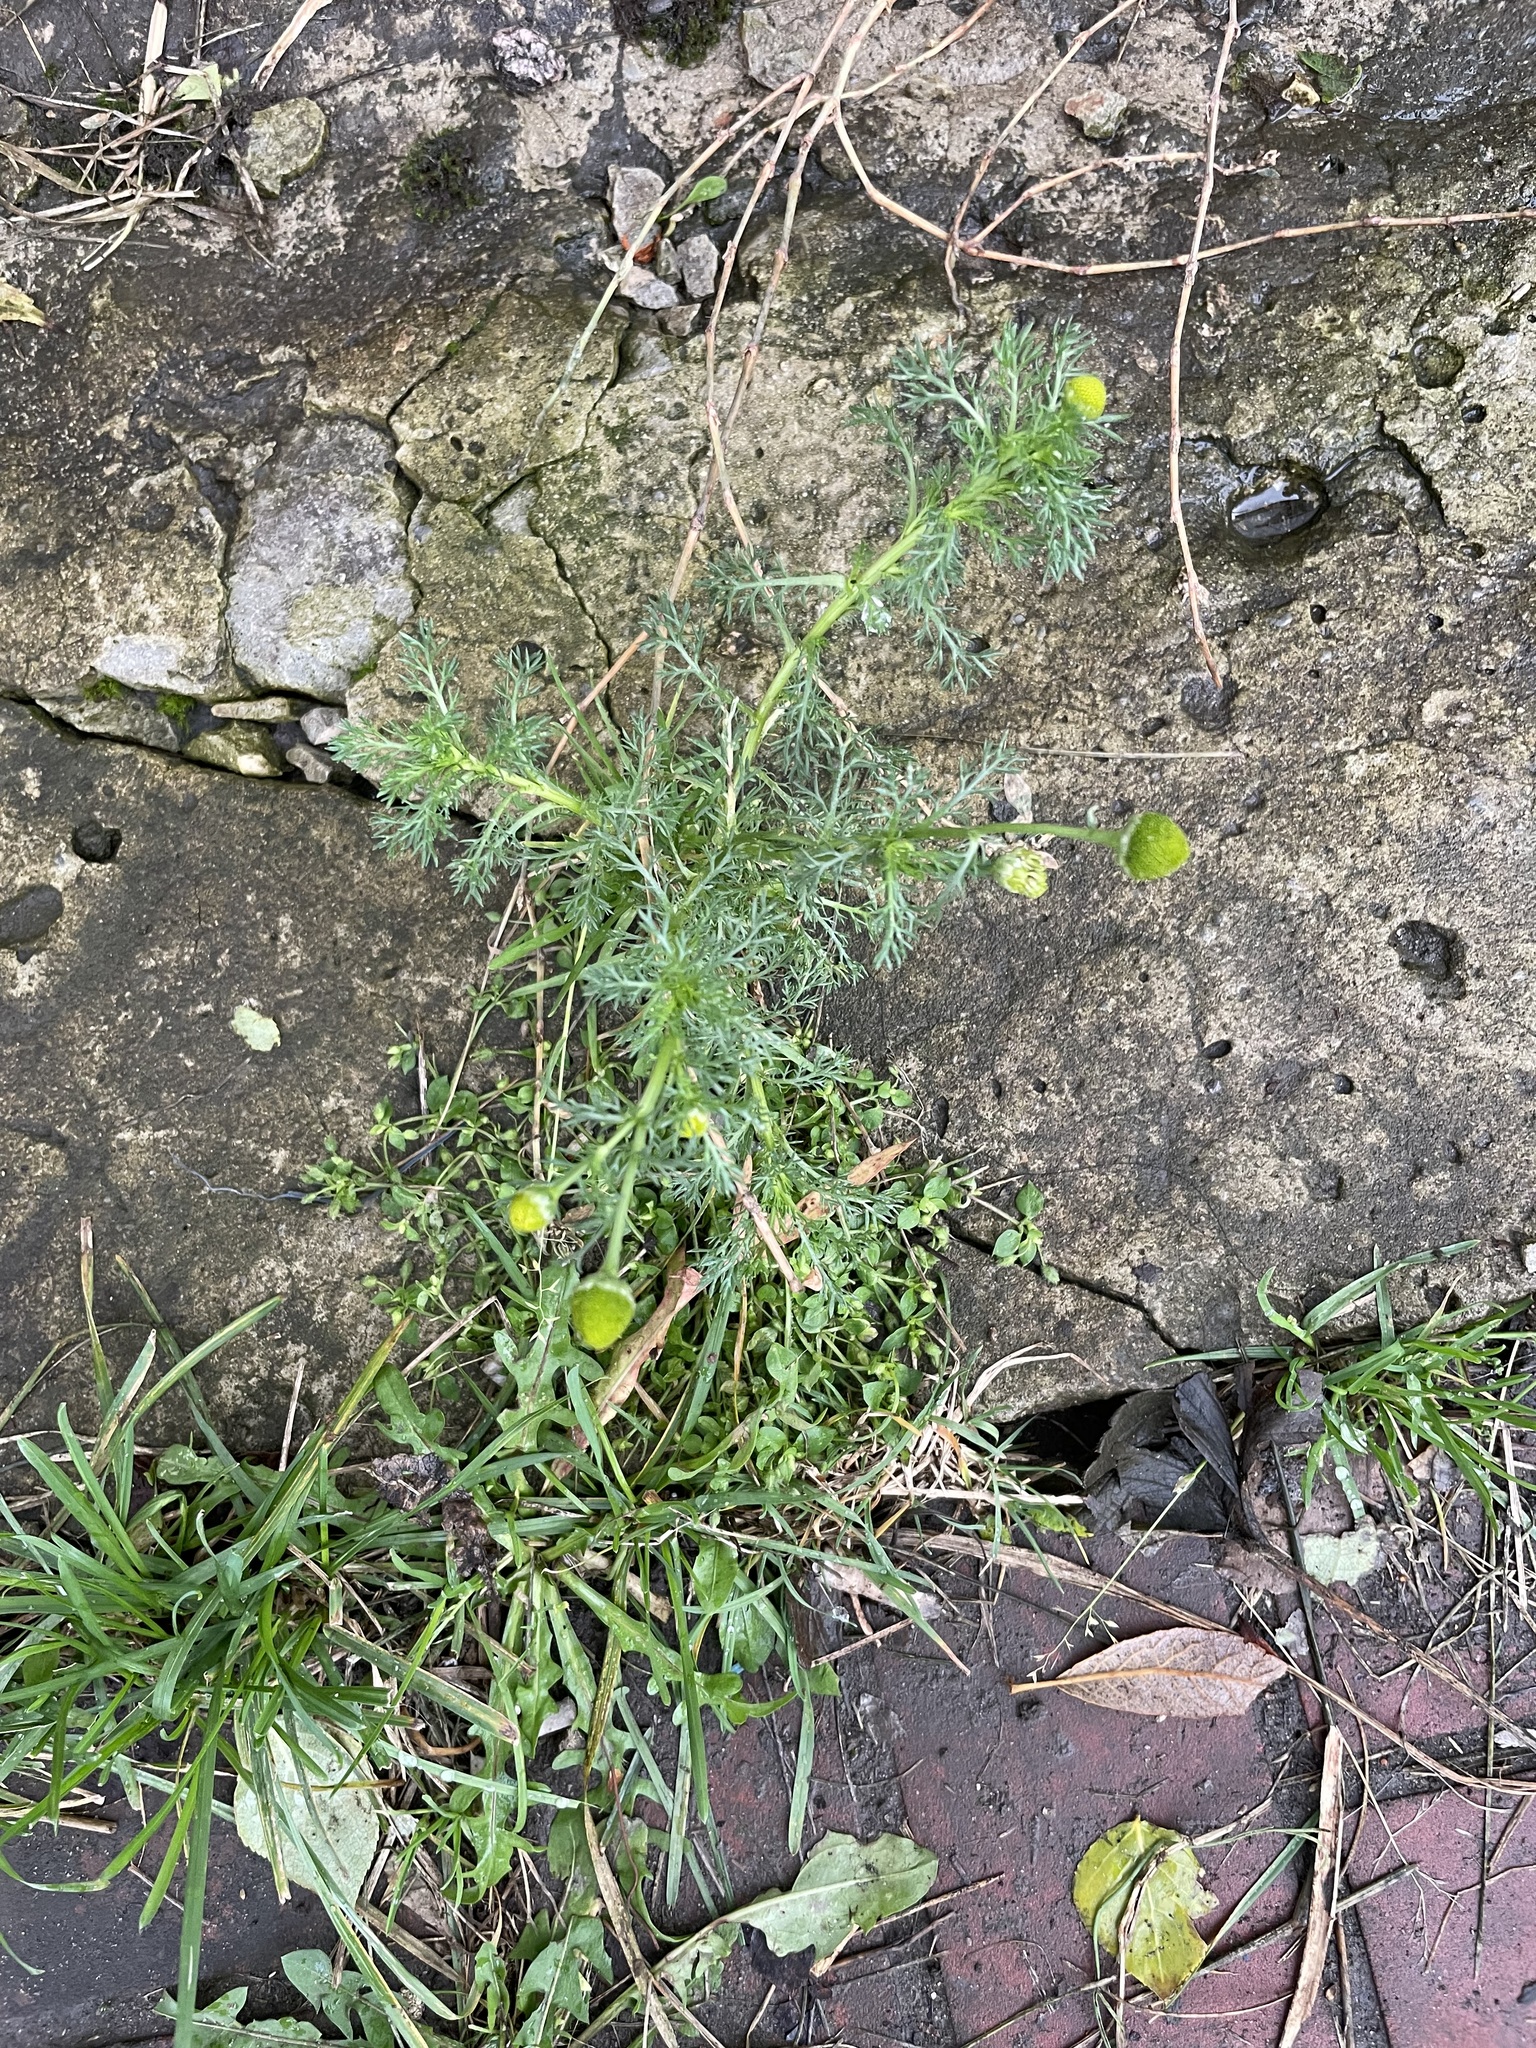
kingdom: Plantae
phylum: Tracheophyta
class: Magnoliopsida
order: Asterales
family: Asteraceae
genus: Matricaria
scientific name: Matricaria discoidea
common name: Disc mayweed
